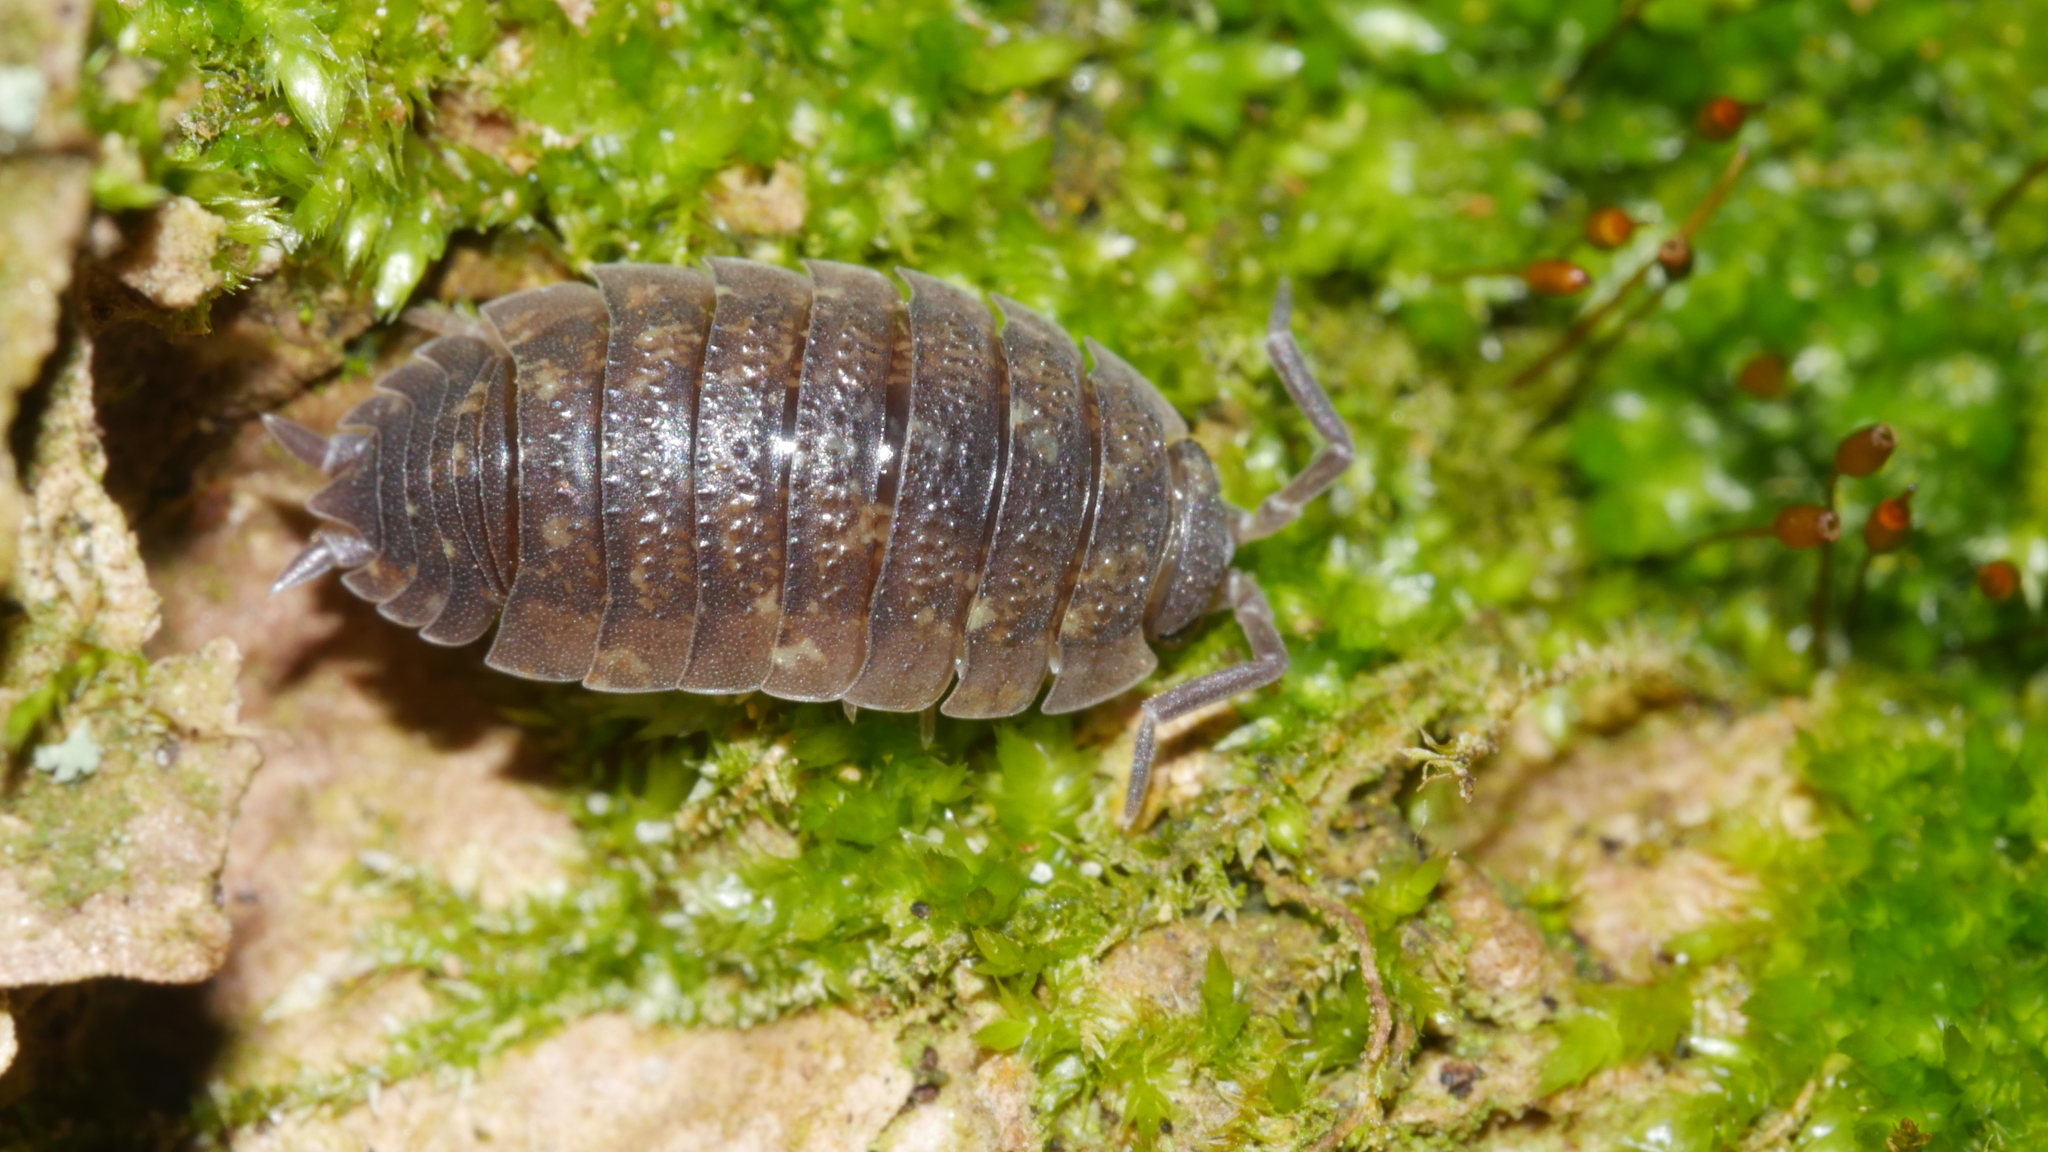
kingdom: Animalia
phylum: Arthropoda
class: Malacostraca
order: Isopoda
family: Porcellionidae
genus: Porcellio
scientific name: Porcellio scaber
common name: Common rough woodlouse
